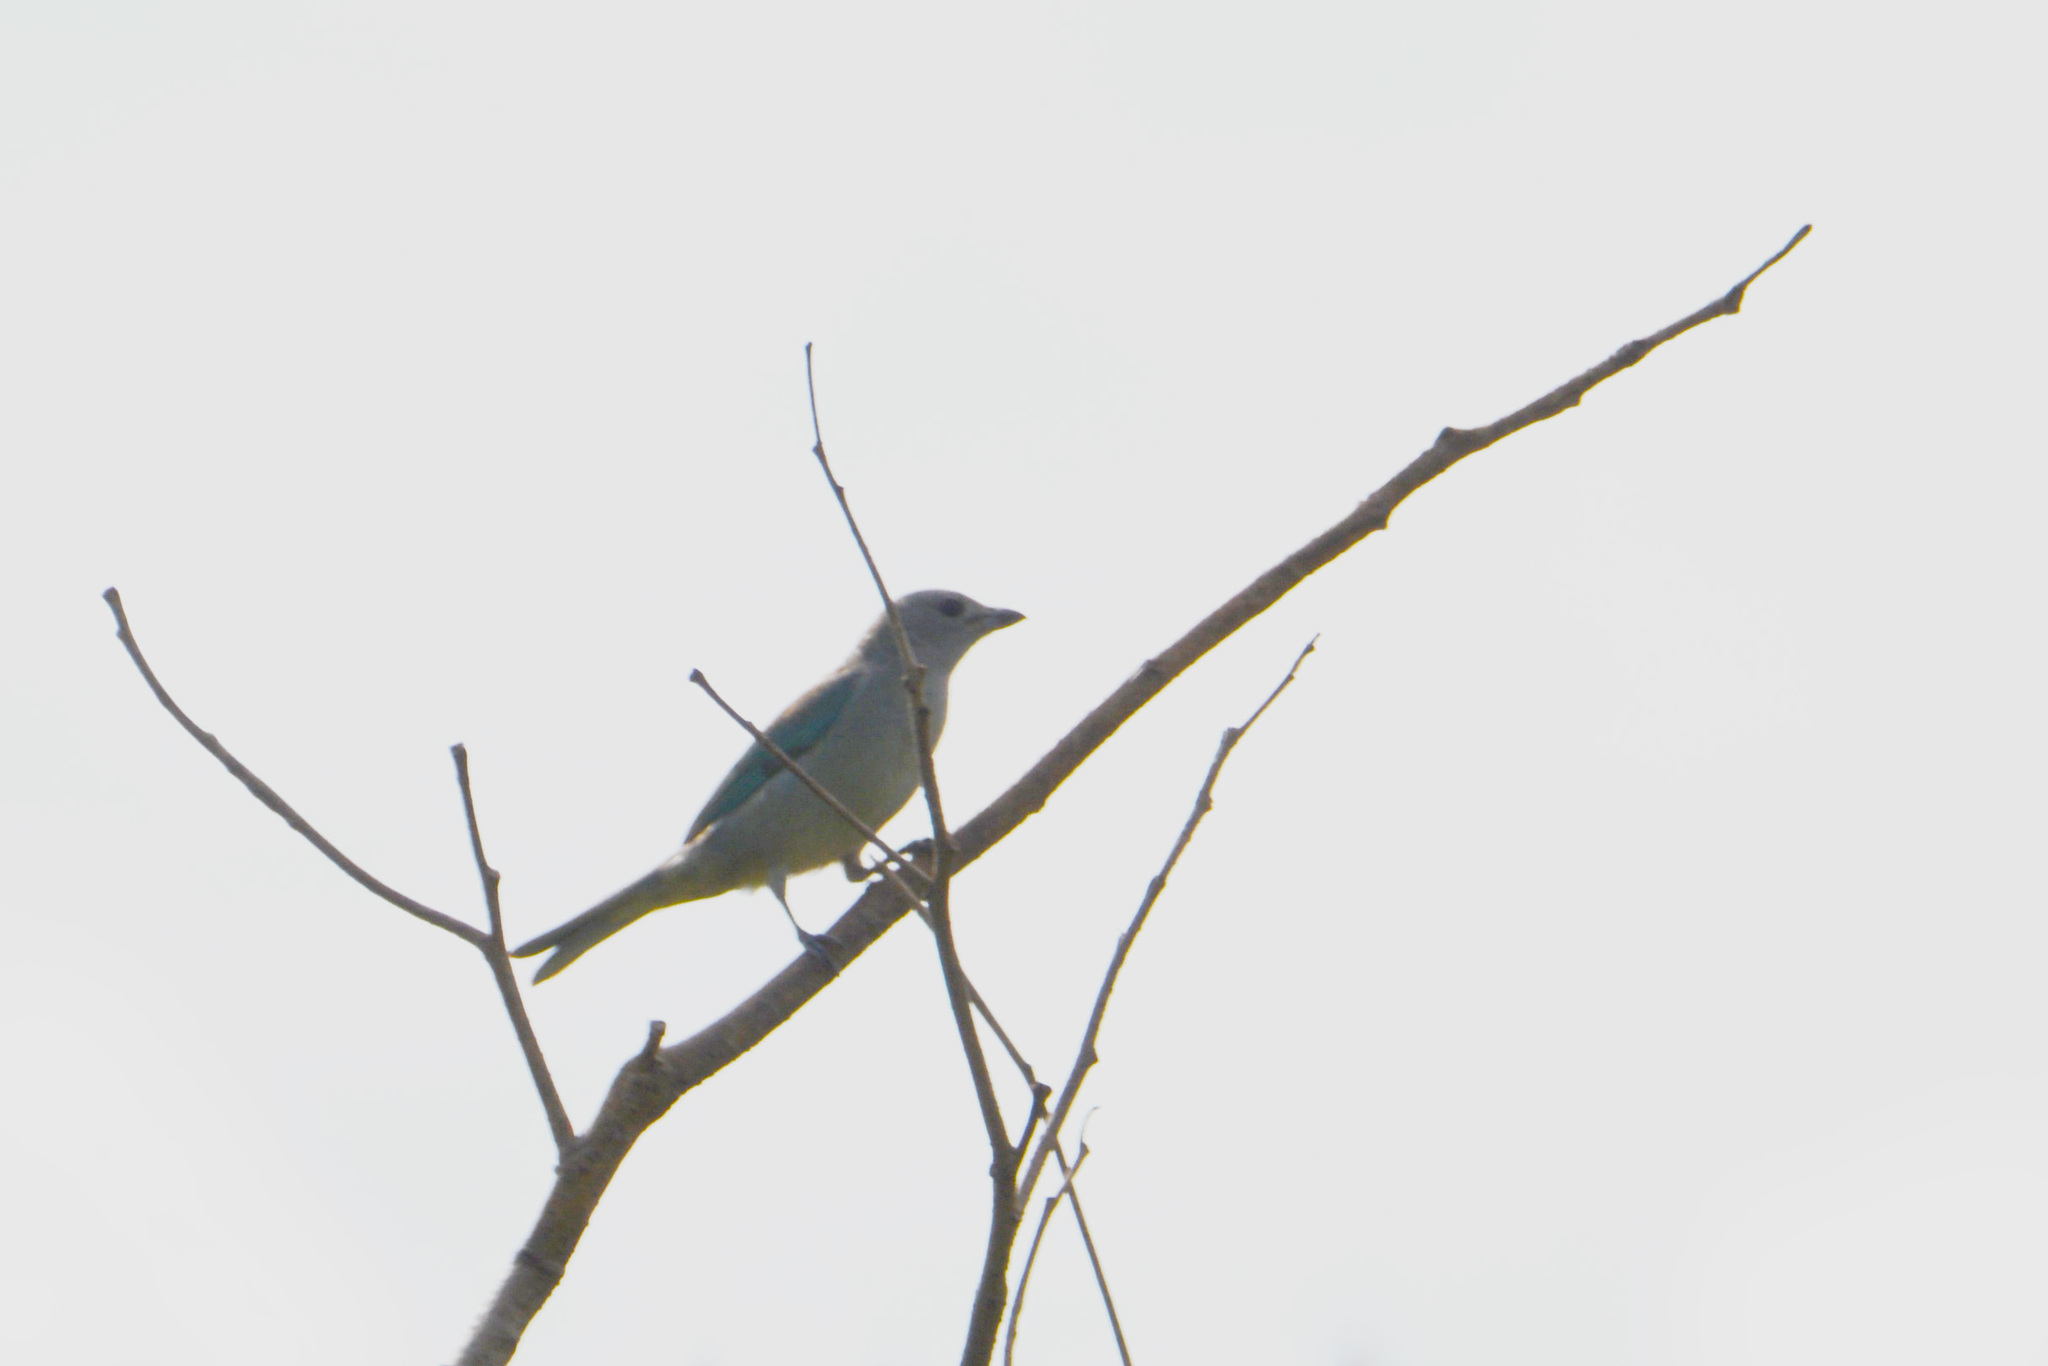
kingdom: Animalia
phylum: Chordata
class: Aves
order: Passeriformes
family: Thraupidae
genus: Thraupis
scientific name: Thraupis sayaca
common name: Sayaca tanager
